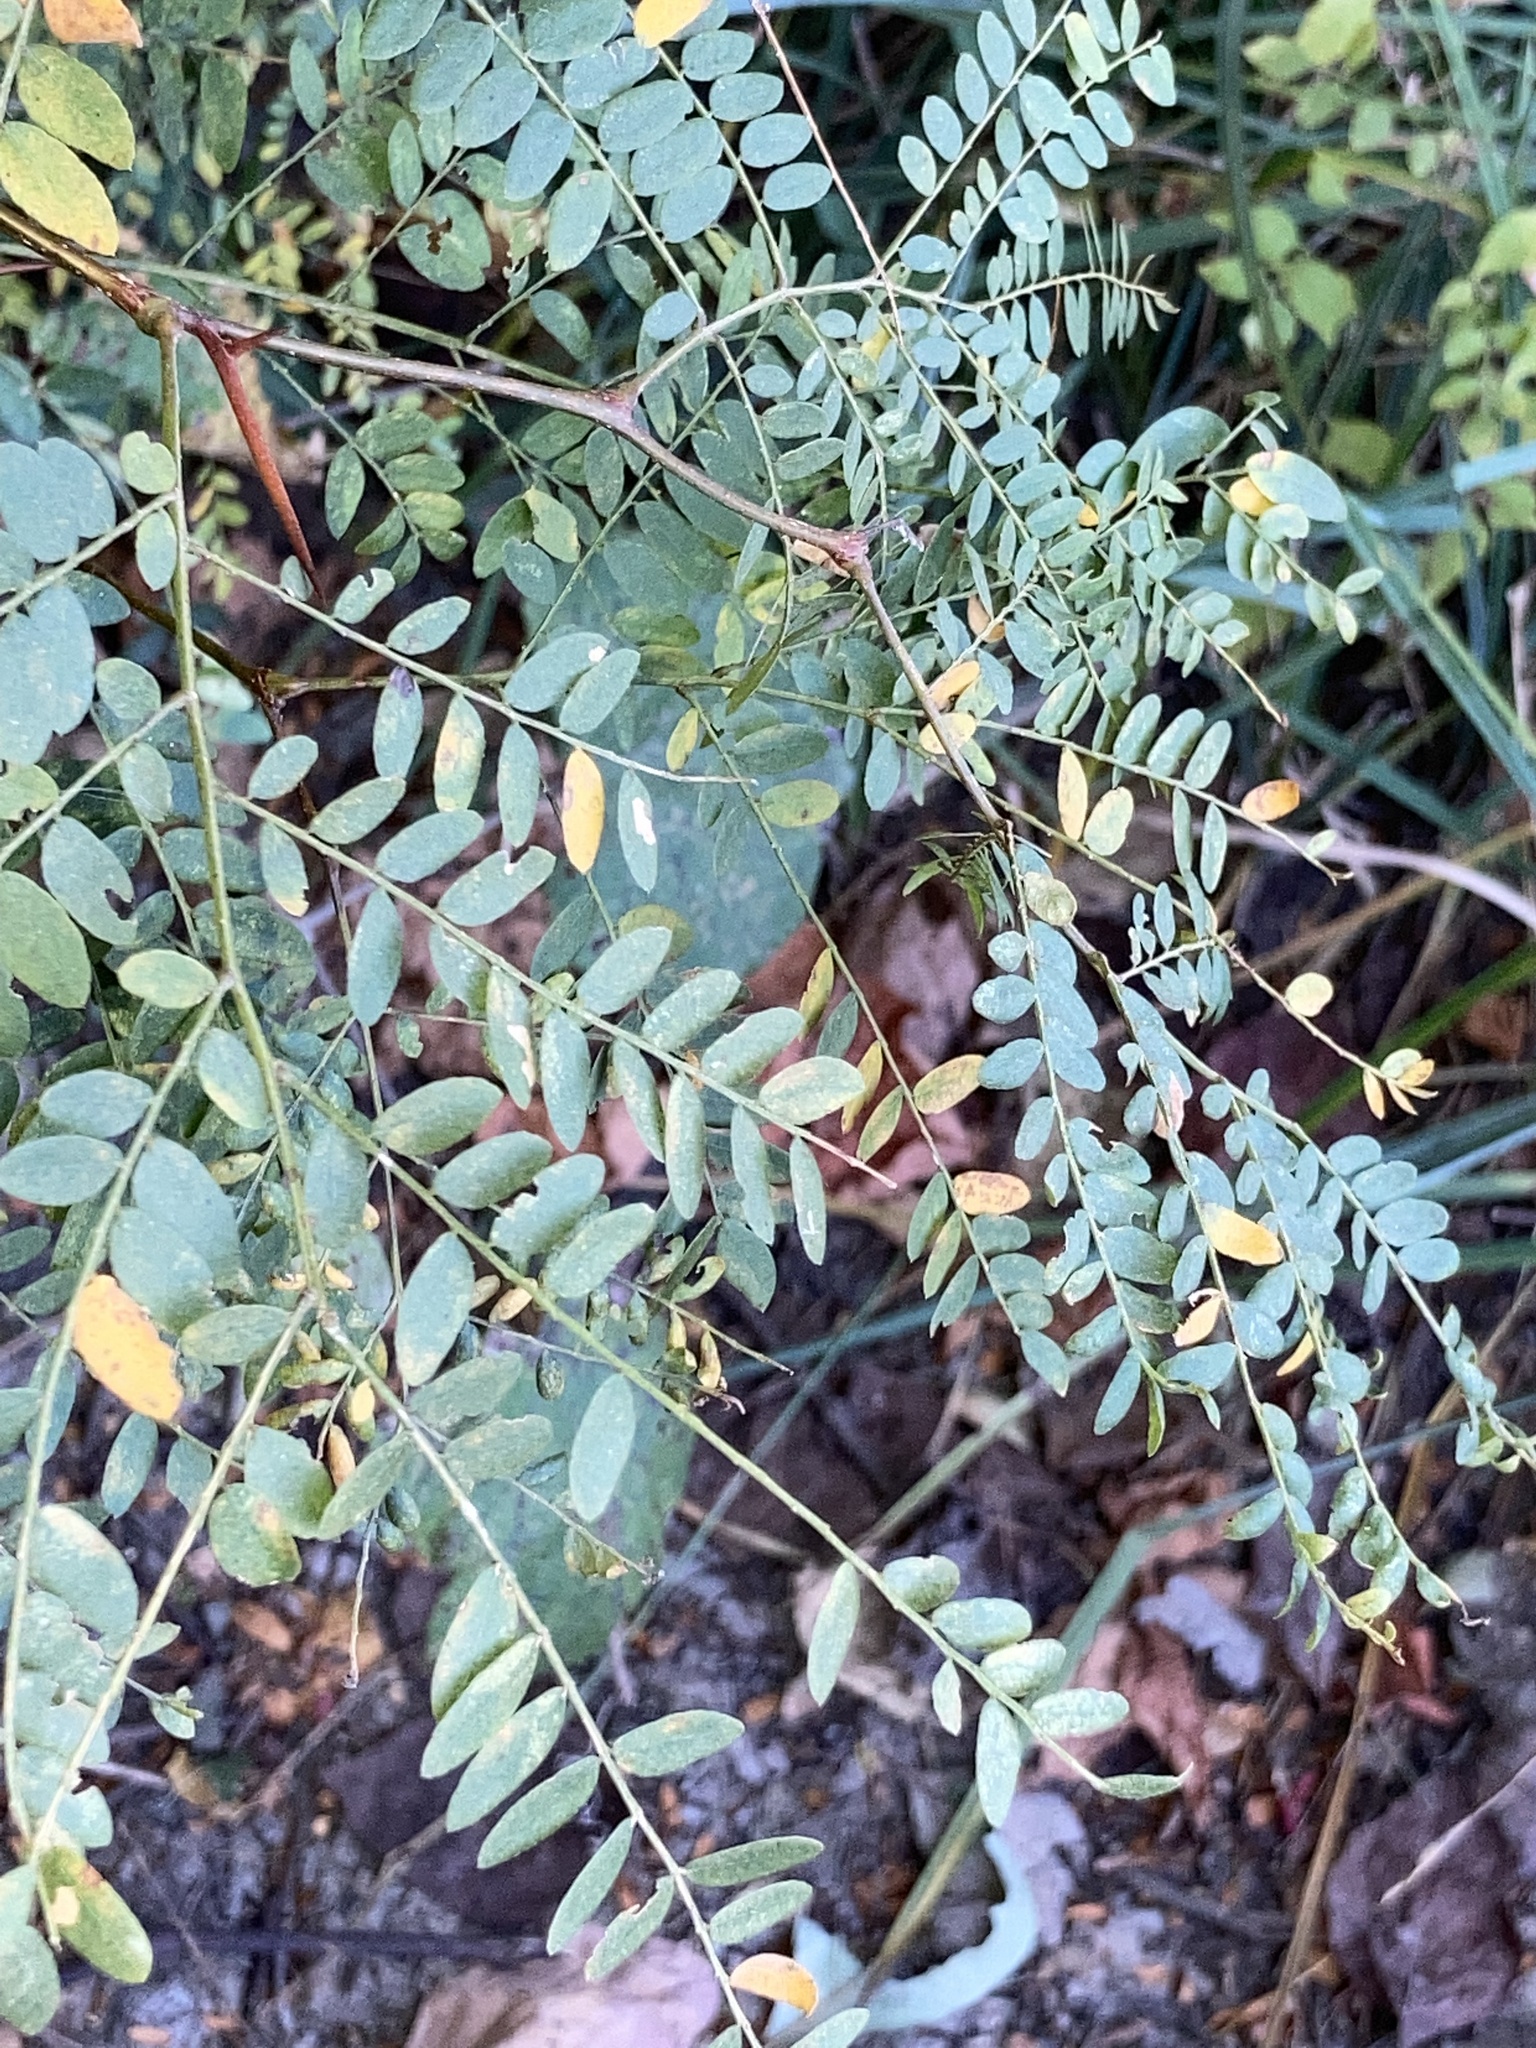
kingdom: Plantae
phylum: Tracheophyta
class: Magnoliopsida
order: Fabales
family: Fabaceae
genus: Gleditsia
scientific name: Gleditsia triacanthos
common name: Common honeylocust
